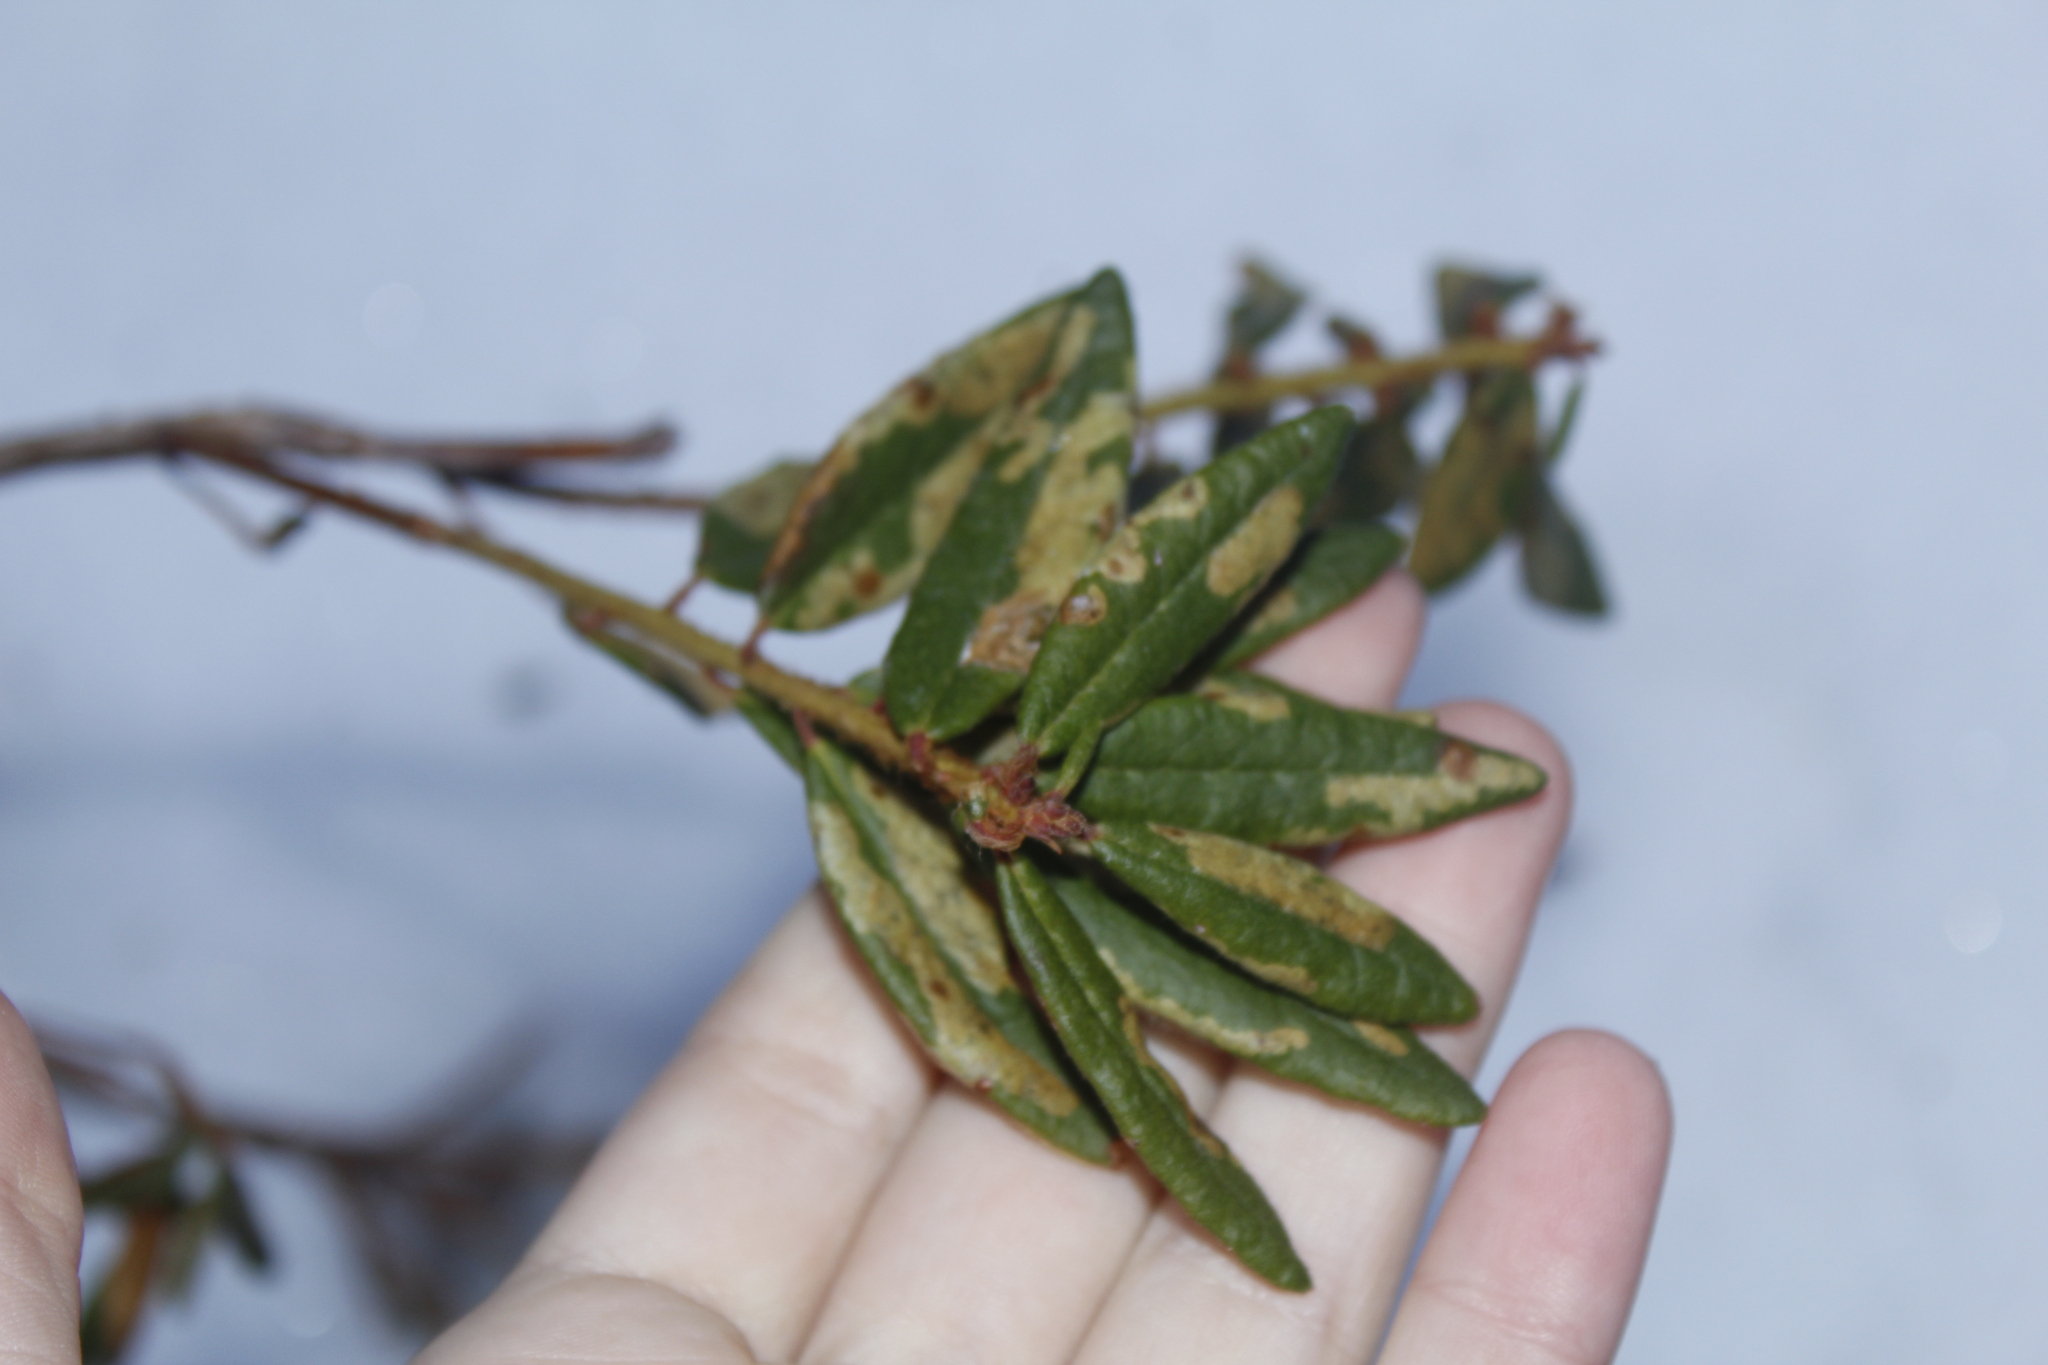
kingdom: Animalia
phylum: Arthropoda
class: Insecta
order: Lepidoptera
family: Gracillariidae
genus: Phyllonorycter
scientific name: Phyllonorycter ledella
